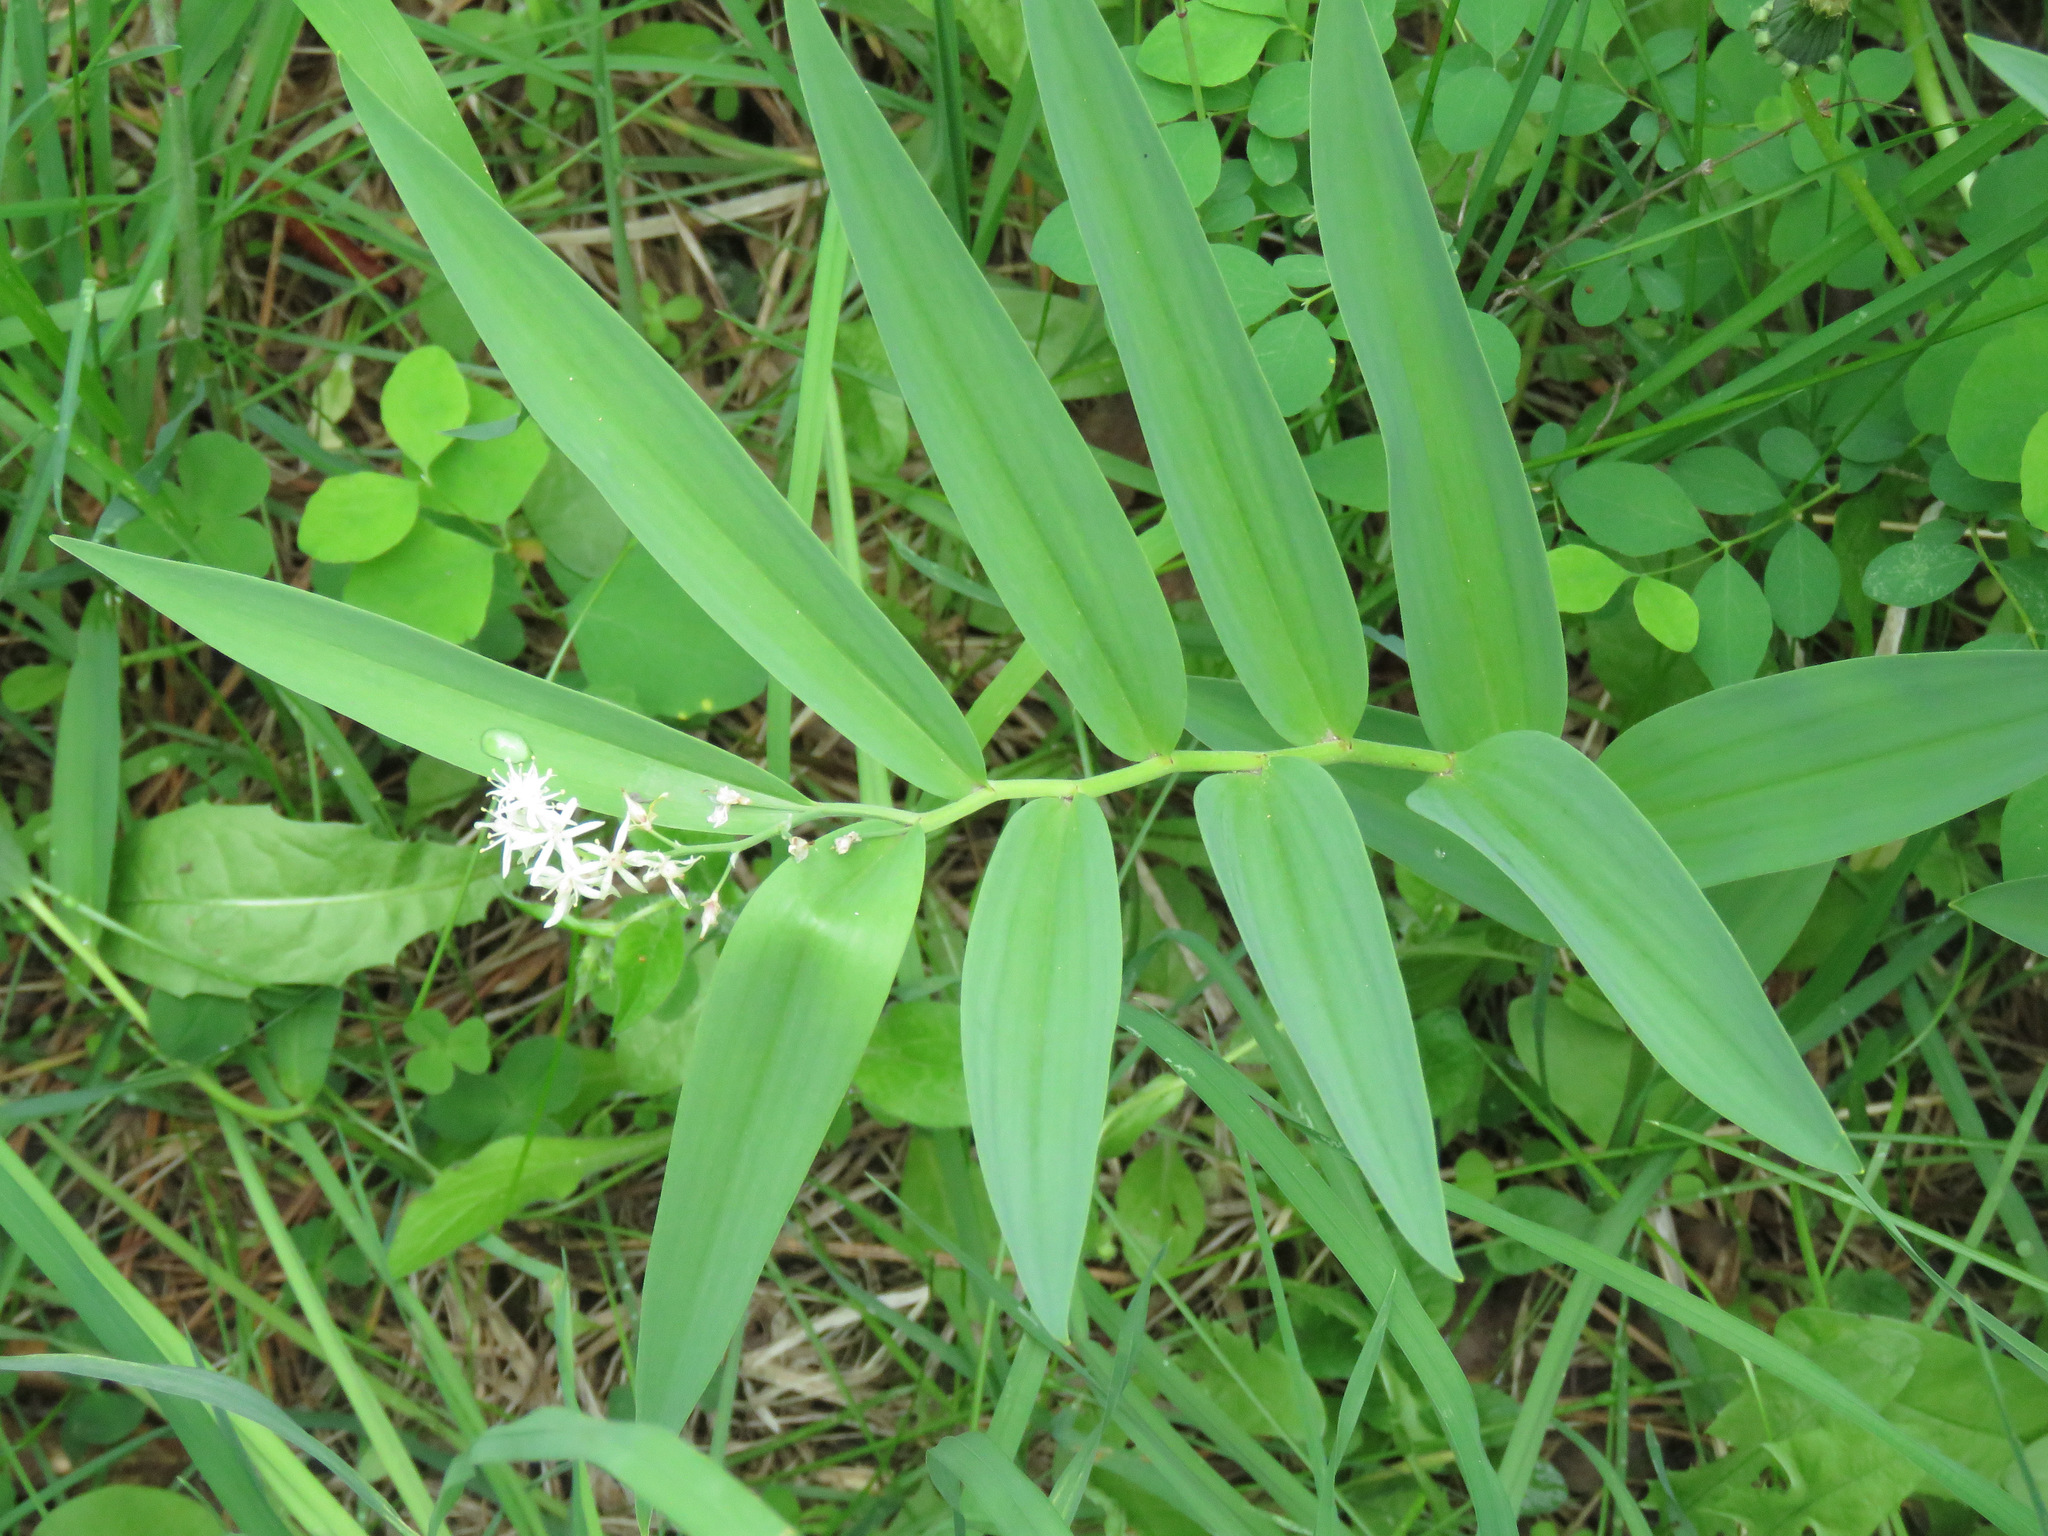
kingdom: Plantae
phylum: Tracheophyta
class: Liliopsida
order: Asparagales
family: Asparagaceae
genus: Maianthemum
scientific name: Maianthemum stellatum
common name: Little false solomon's seal
